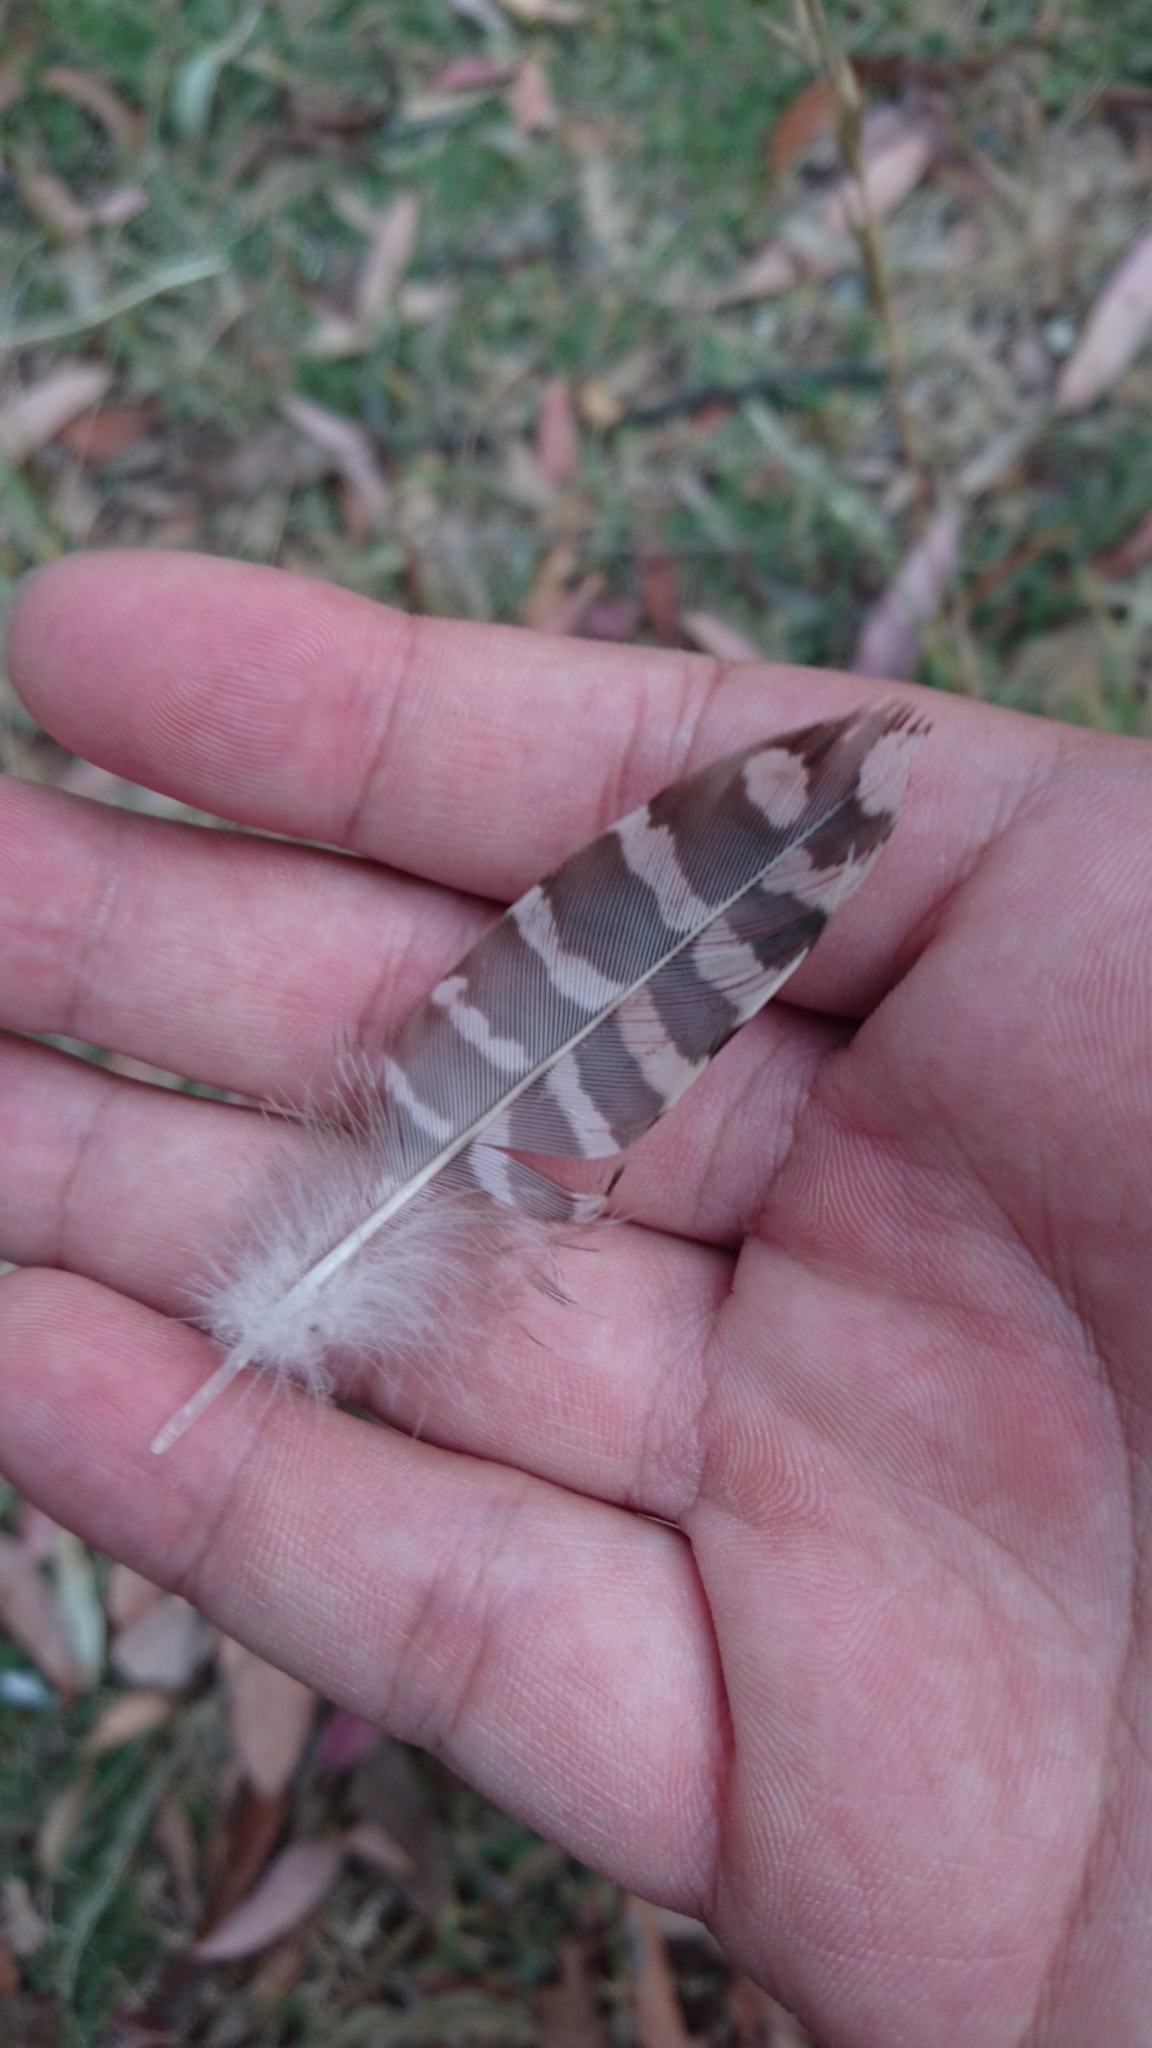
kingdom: Animalia
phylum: Chordata
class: Aves
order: Cuculiformes
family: Cuculidae
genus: Eudynamys
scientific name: Eudynamys orientalis
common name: Pacific koel
